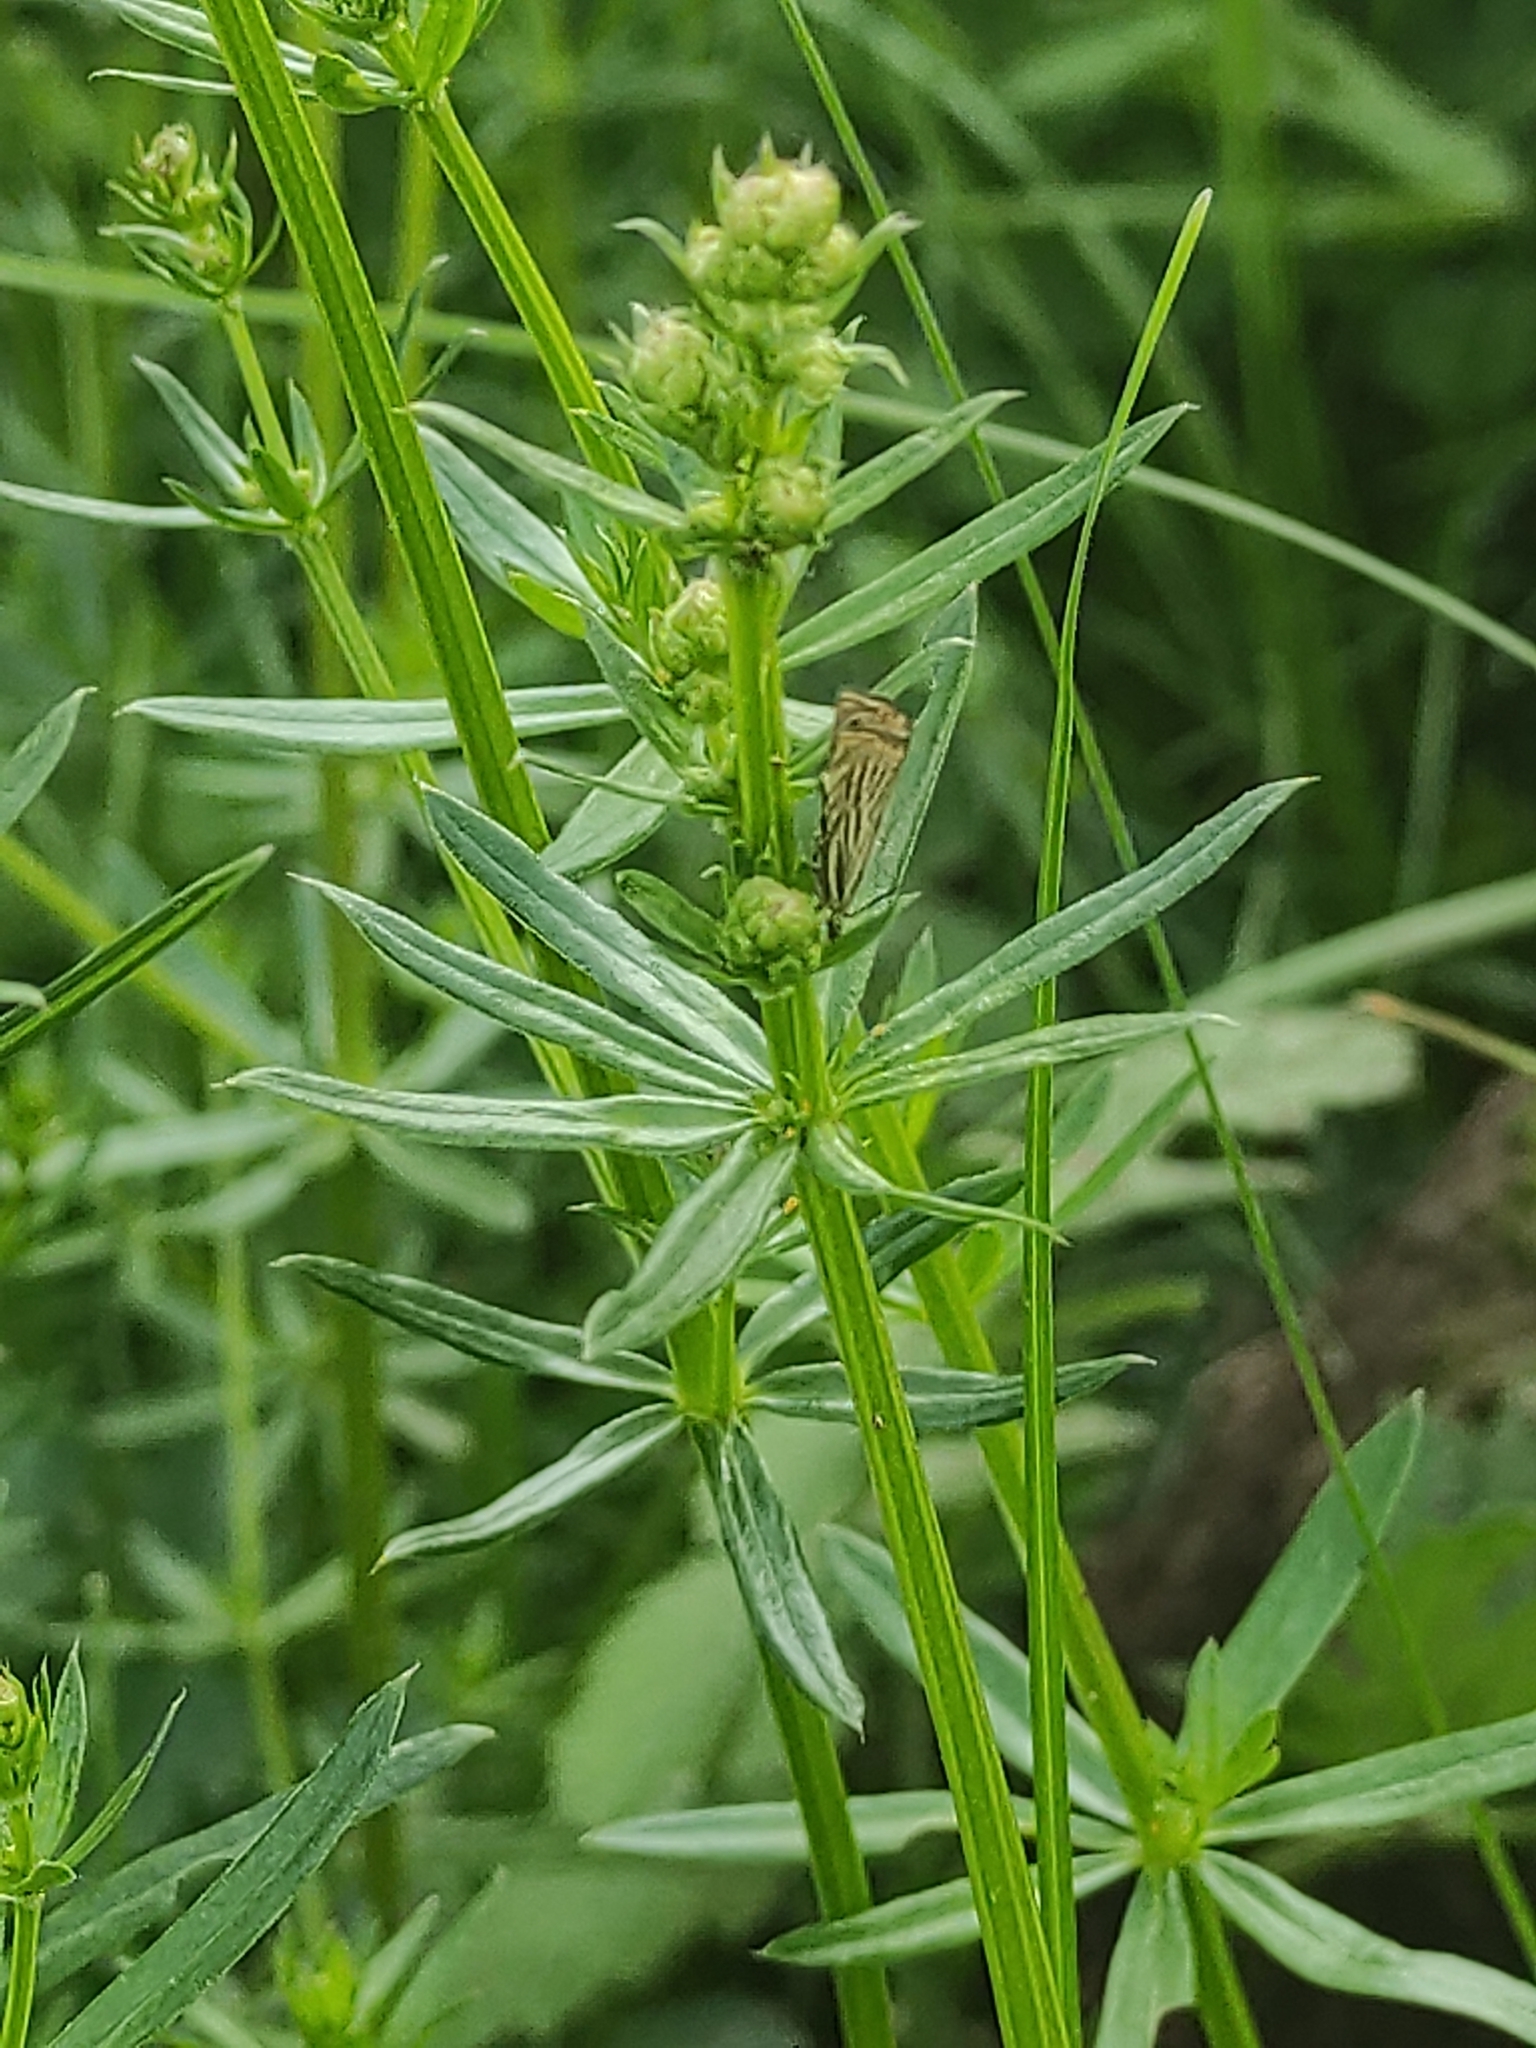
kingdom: Animalia
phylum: Arthropoda
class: Insecta
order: Lepidoptera
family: Crambidae
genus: Chrysoteuchia
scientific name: Chrysoteuchia culmella
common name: Garden grass-veneer
